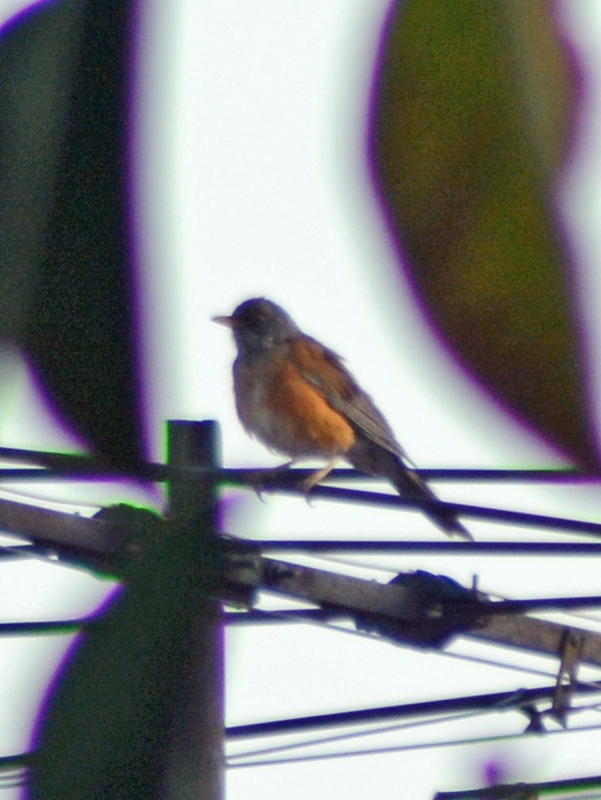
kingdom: Animalia
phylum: Chordata
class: Aves
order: Passeriformes
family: Turdidae
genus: Turdus
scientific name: Turdus rufopalliatus
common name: Rufous-backed robin
